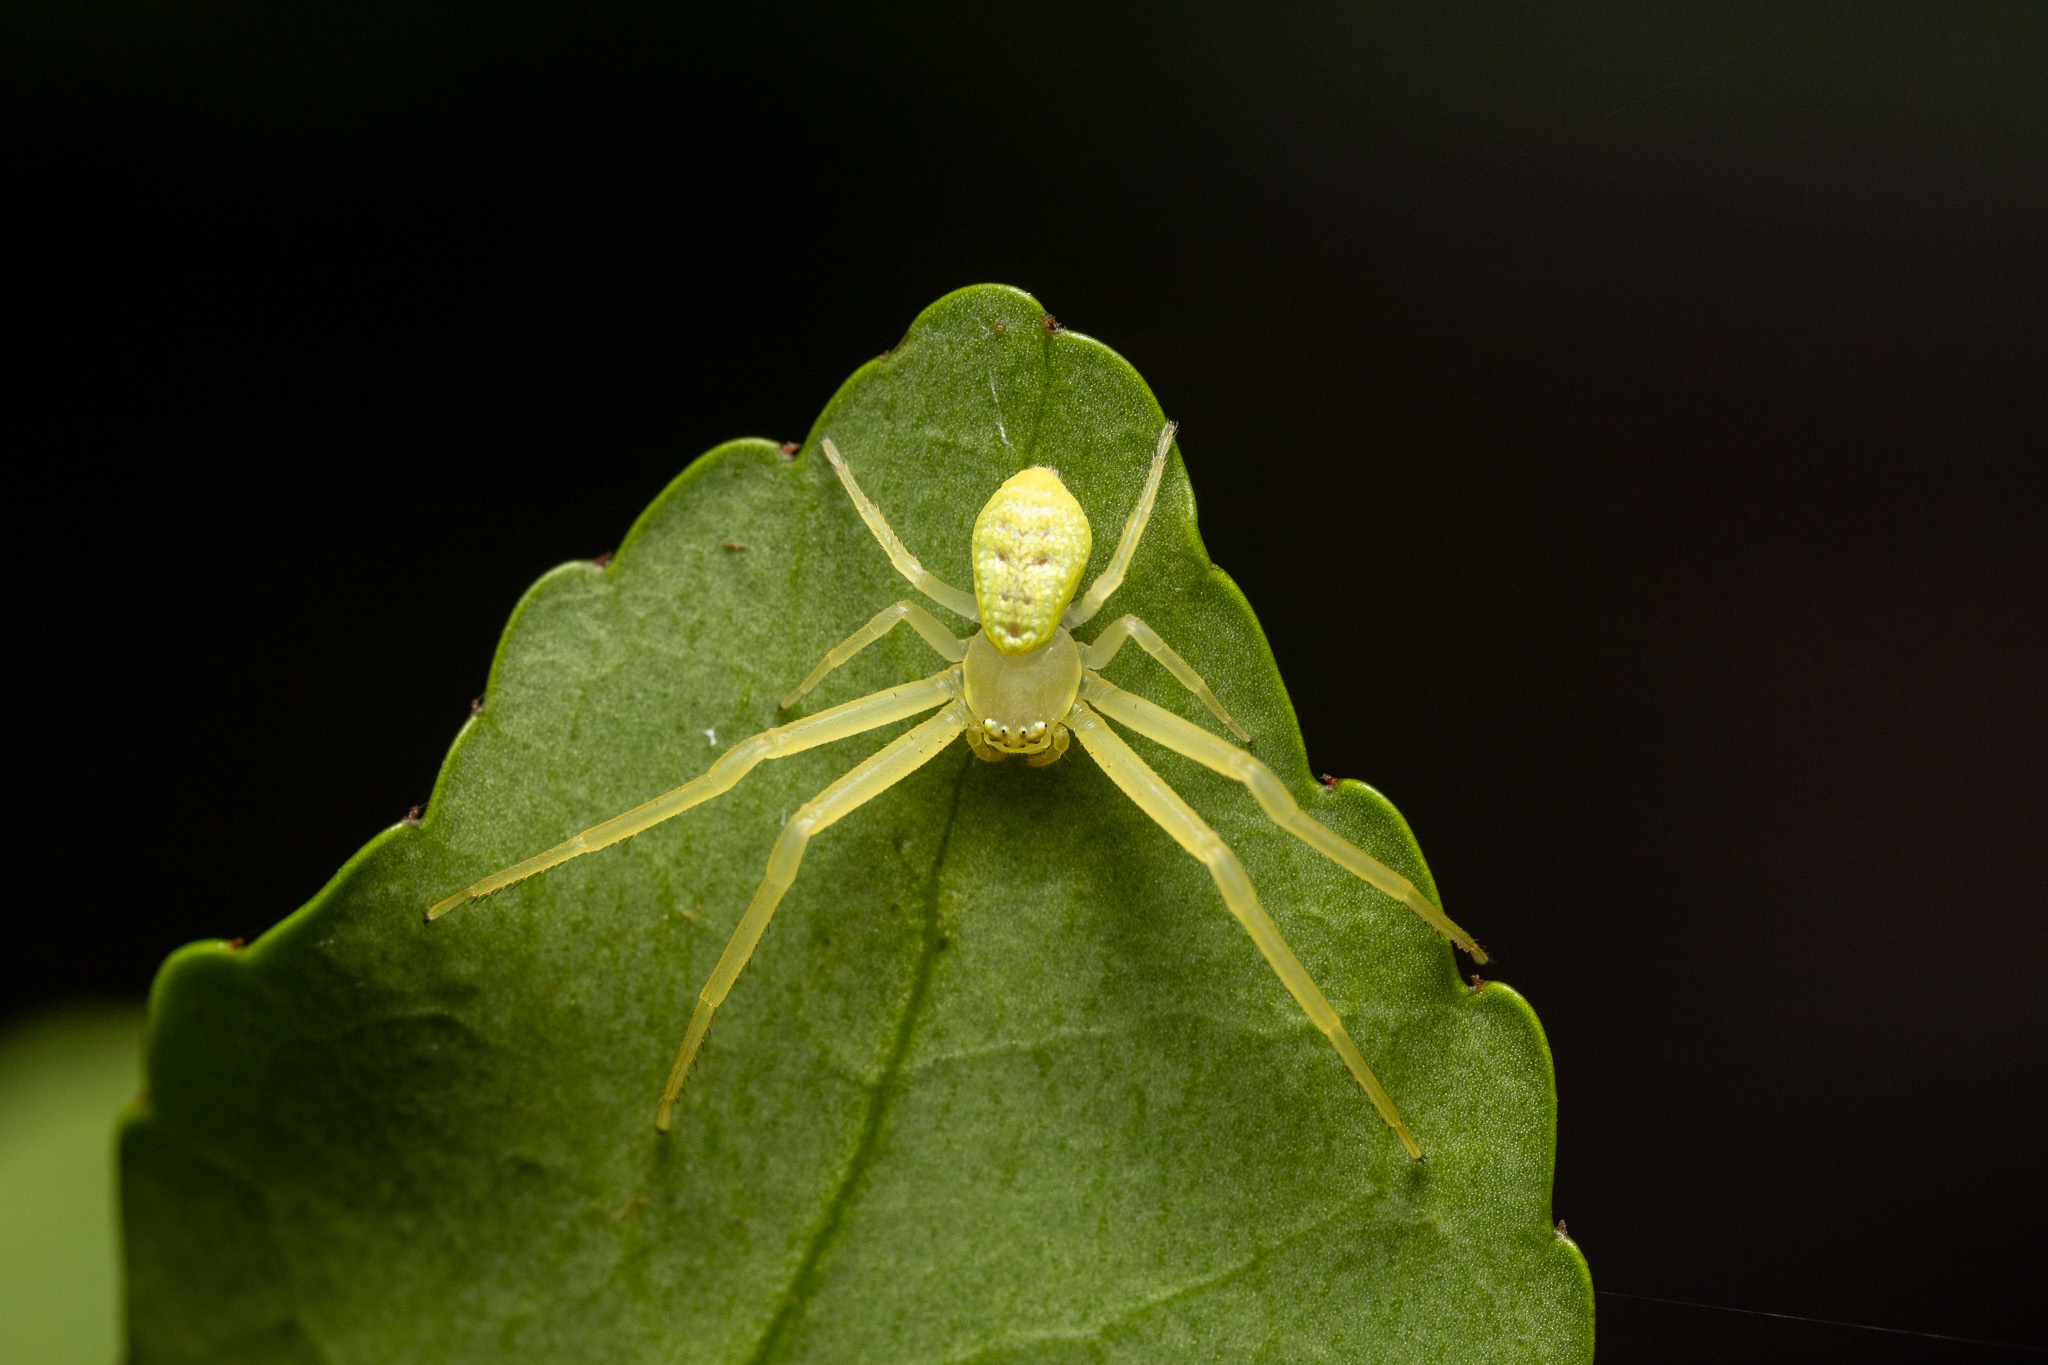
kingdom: Animalia
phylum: Arthropoda
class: Arachnida
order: Araneae
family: Thomisidae
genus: Misumessus
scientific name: Misumessus oblongus
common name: American green crab spider
